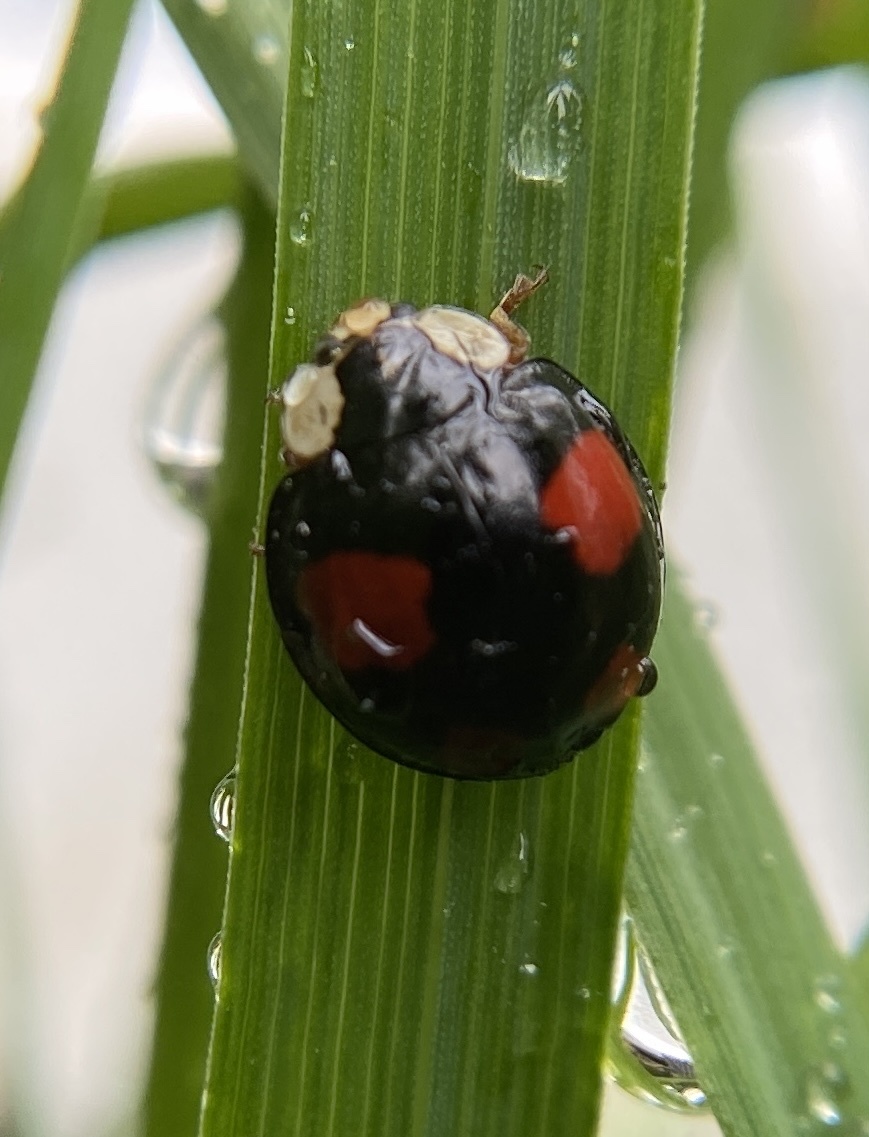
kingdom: Animalia
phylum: Arthropoda
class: Insecta
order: Coleoptera
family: Coccinellidae
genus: Harmonia
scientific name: Harmonia axyridis
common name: Harlequin ladybird
